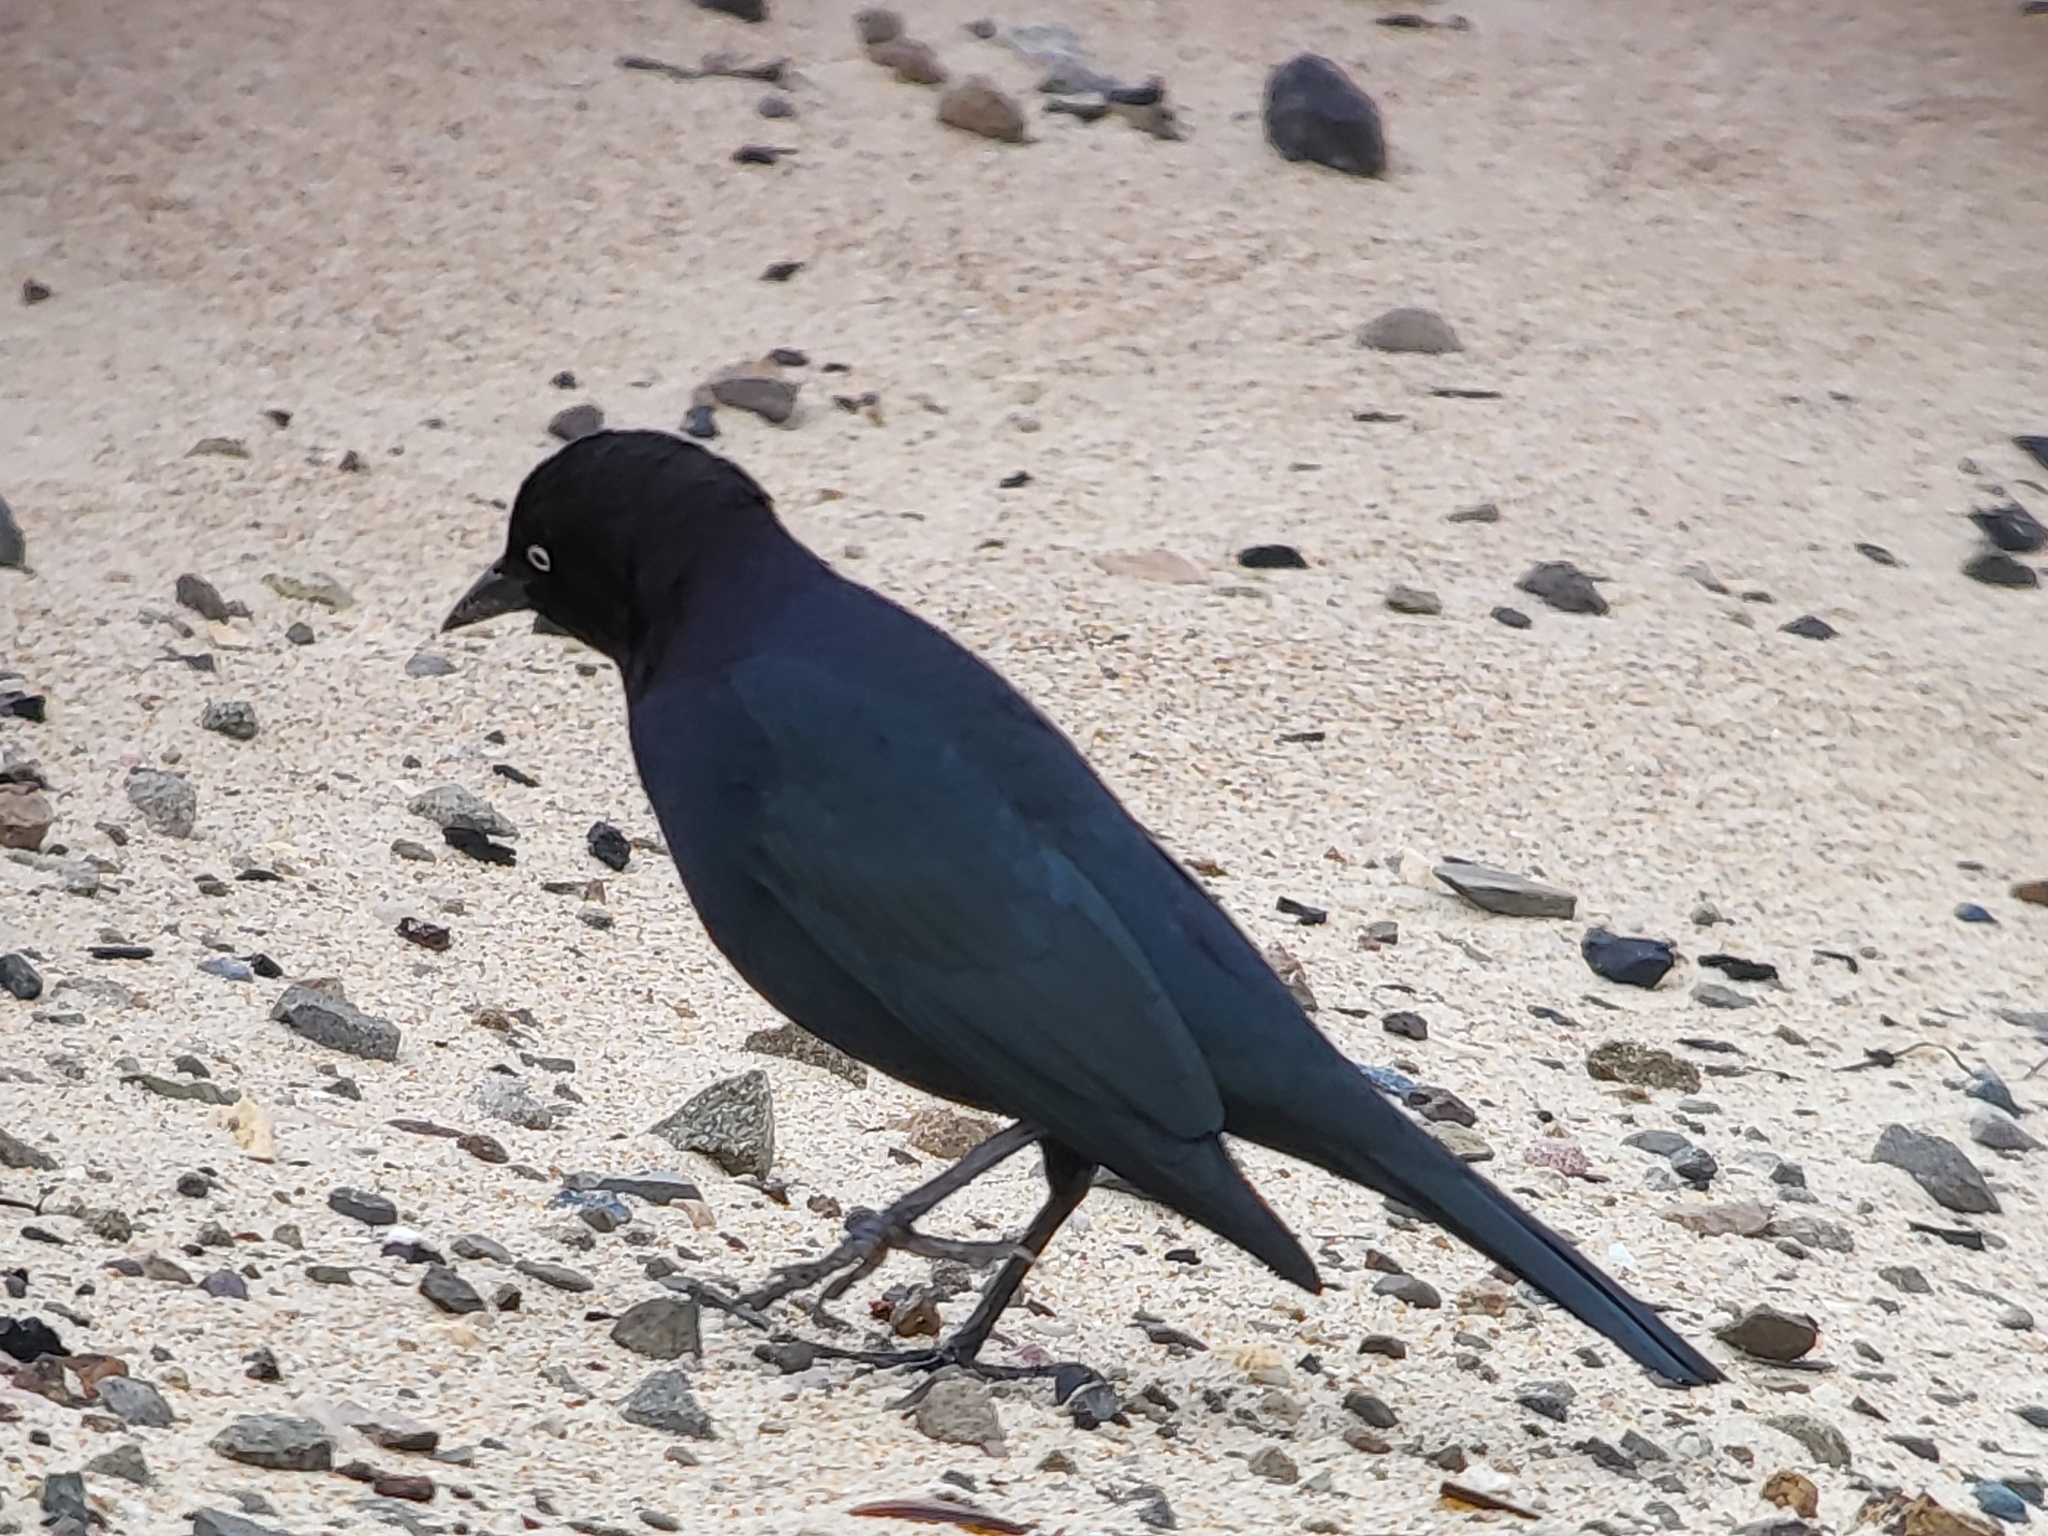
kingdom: Animalia
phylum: Chordata
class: Aves
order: Passeriformes
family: Icteridae
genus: Euphagus
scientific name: Euphagus cyanocephalus
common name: Brewer's blackbird
